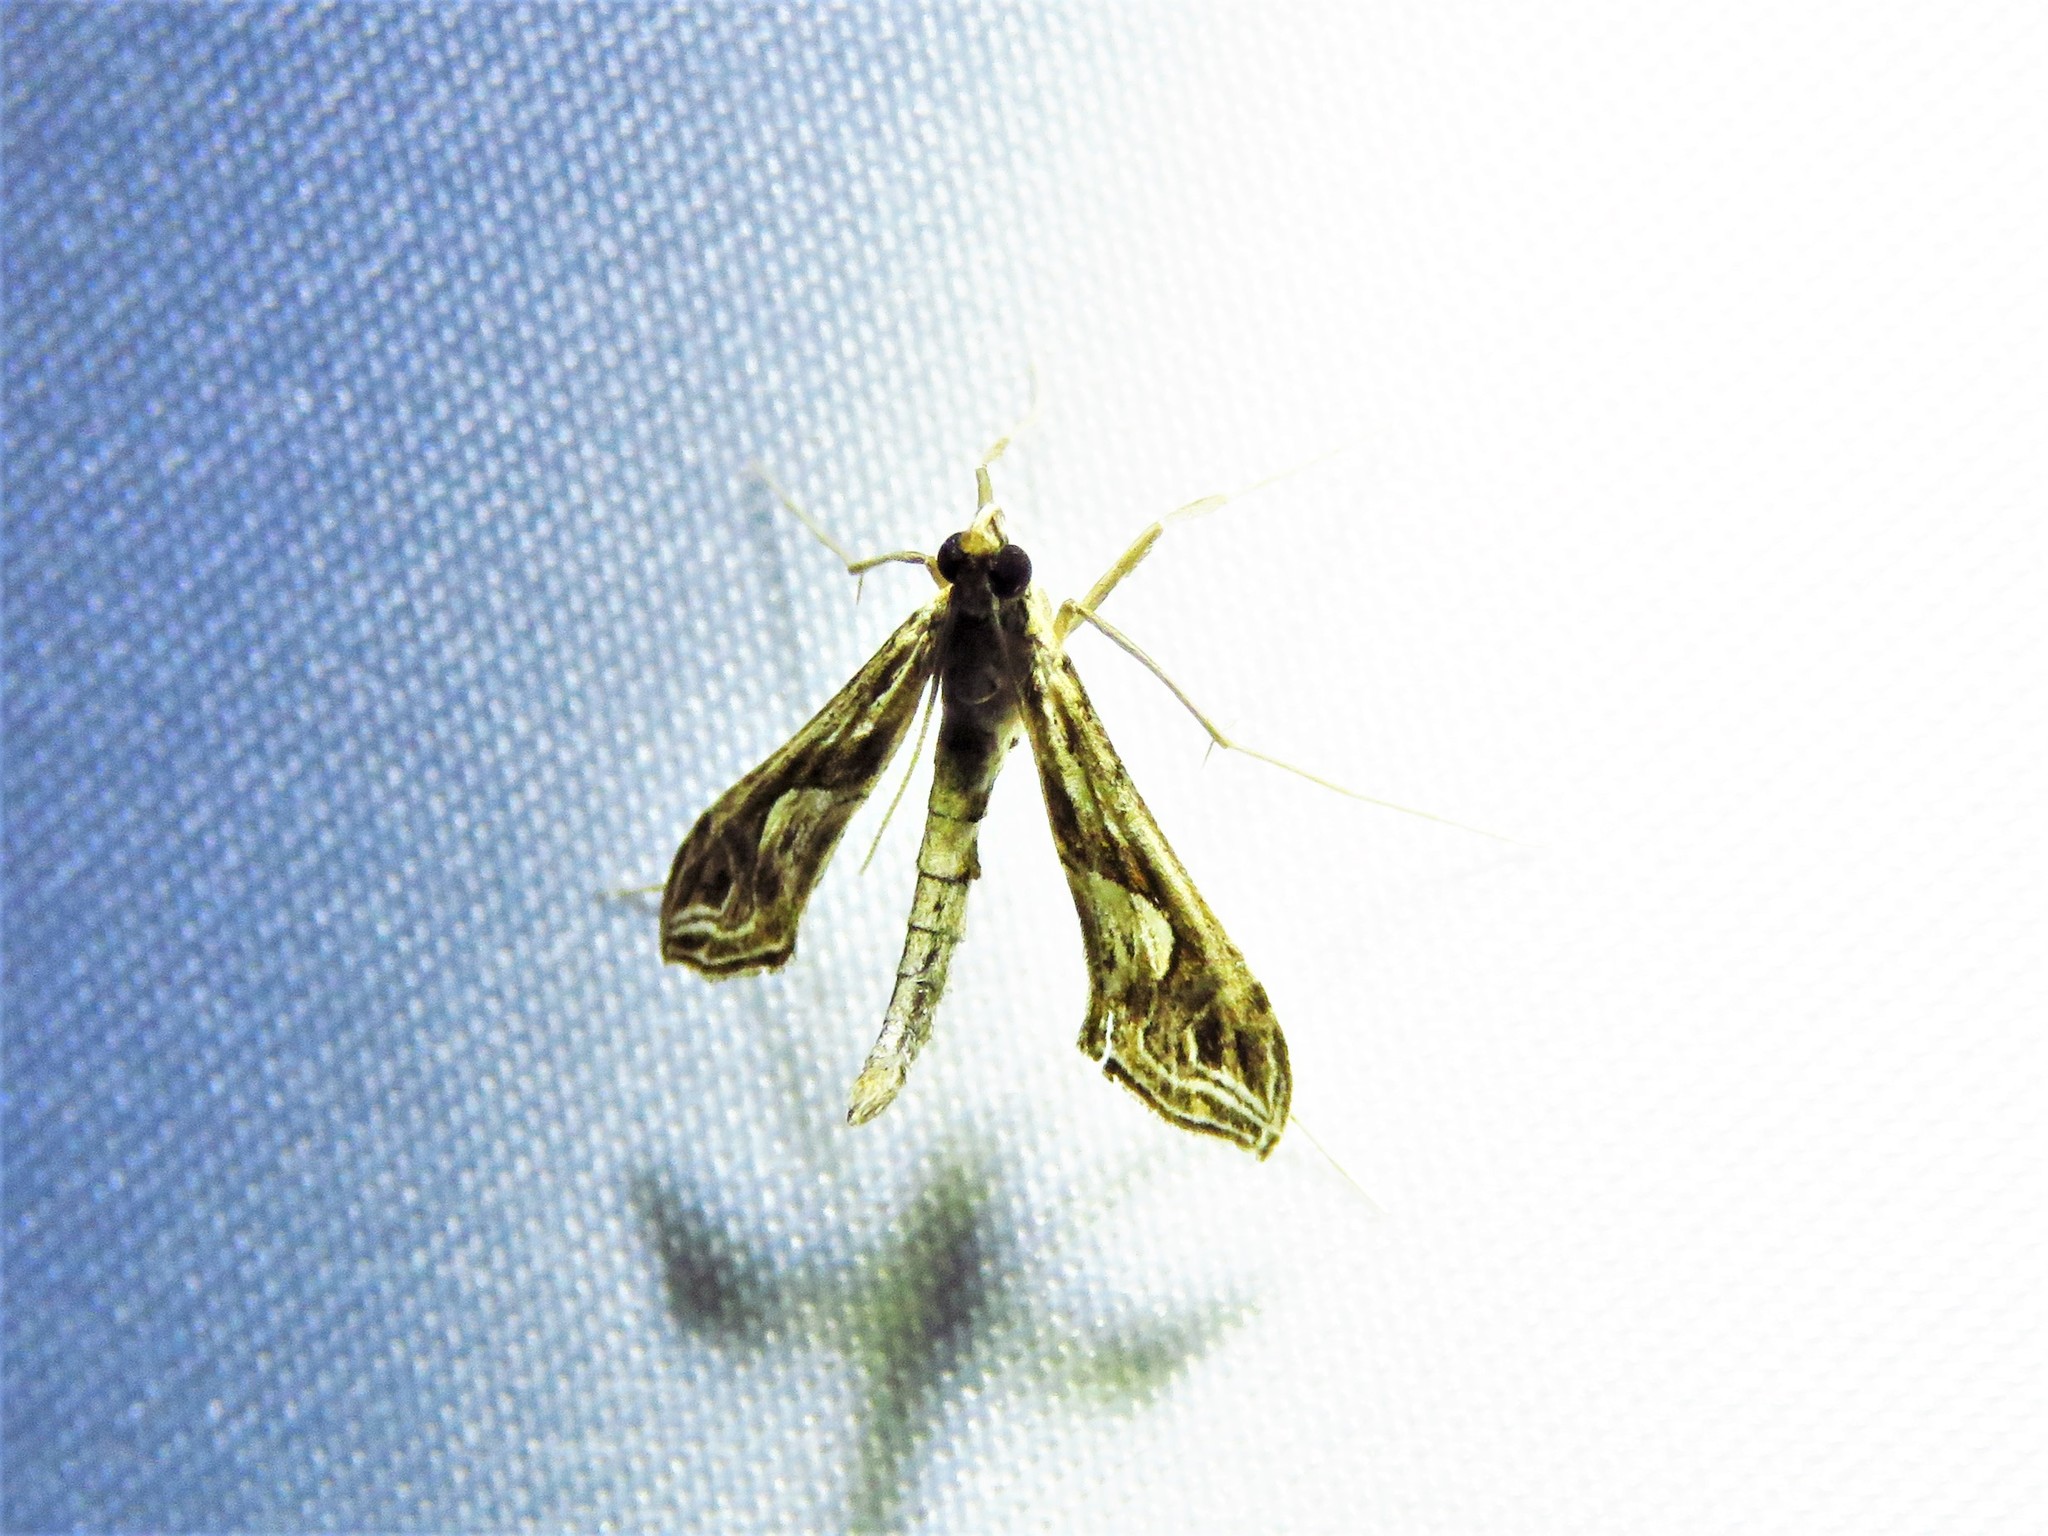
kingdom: Animalia
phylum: Arthropoda
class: Insecta
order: Lepidoptera
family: Crambidae
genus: Lineodes
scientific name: Lineodes integra
